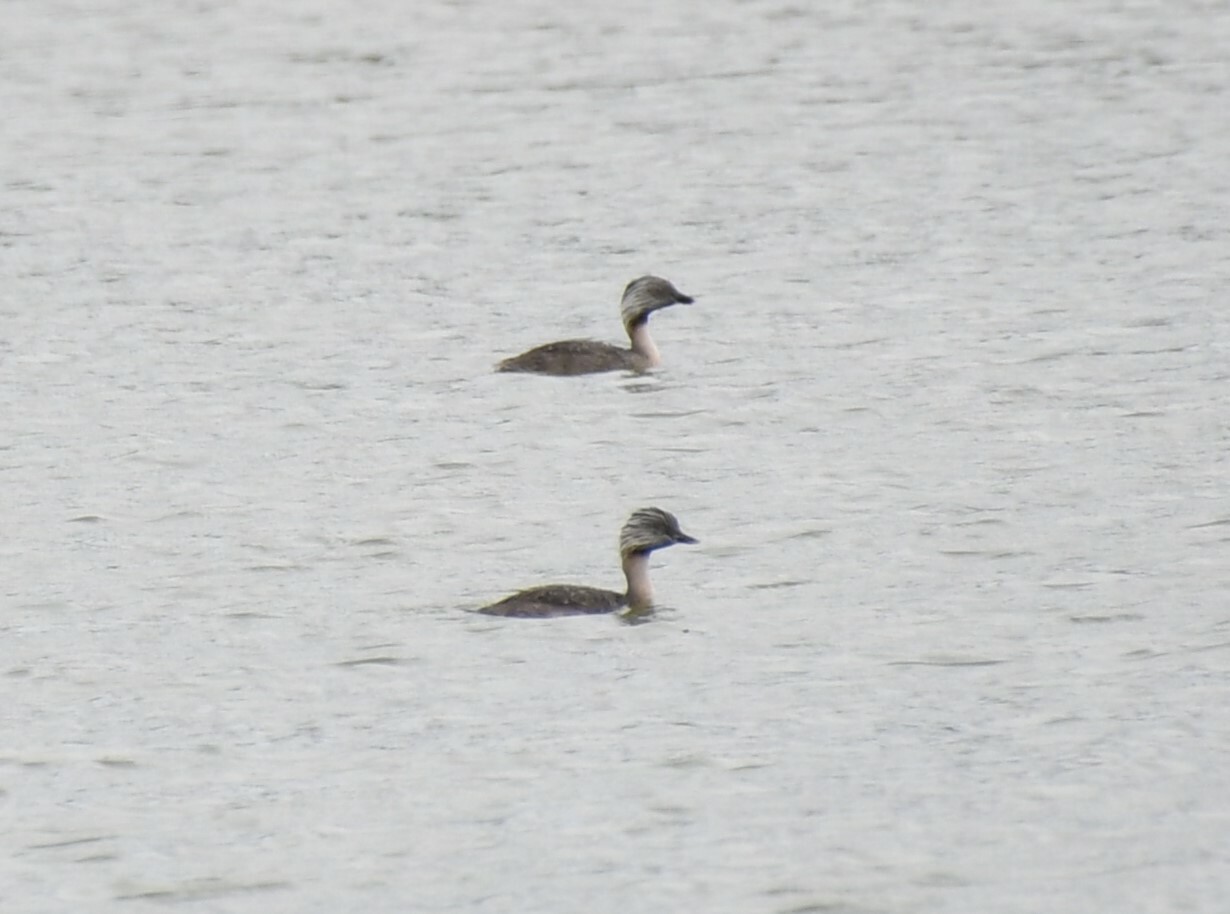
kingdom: Animalia
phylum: Chordata
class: Aves
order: Podicipediformes
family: Podicipedidae
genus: Poliocephalus
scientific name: Poliocephalus poliocephalus
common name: Hoary-headed grebe
